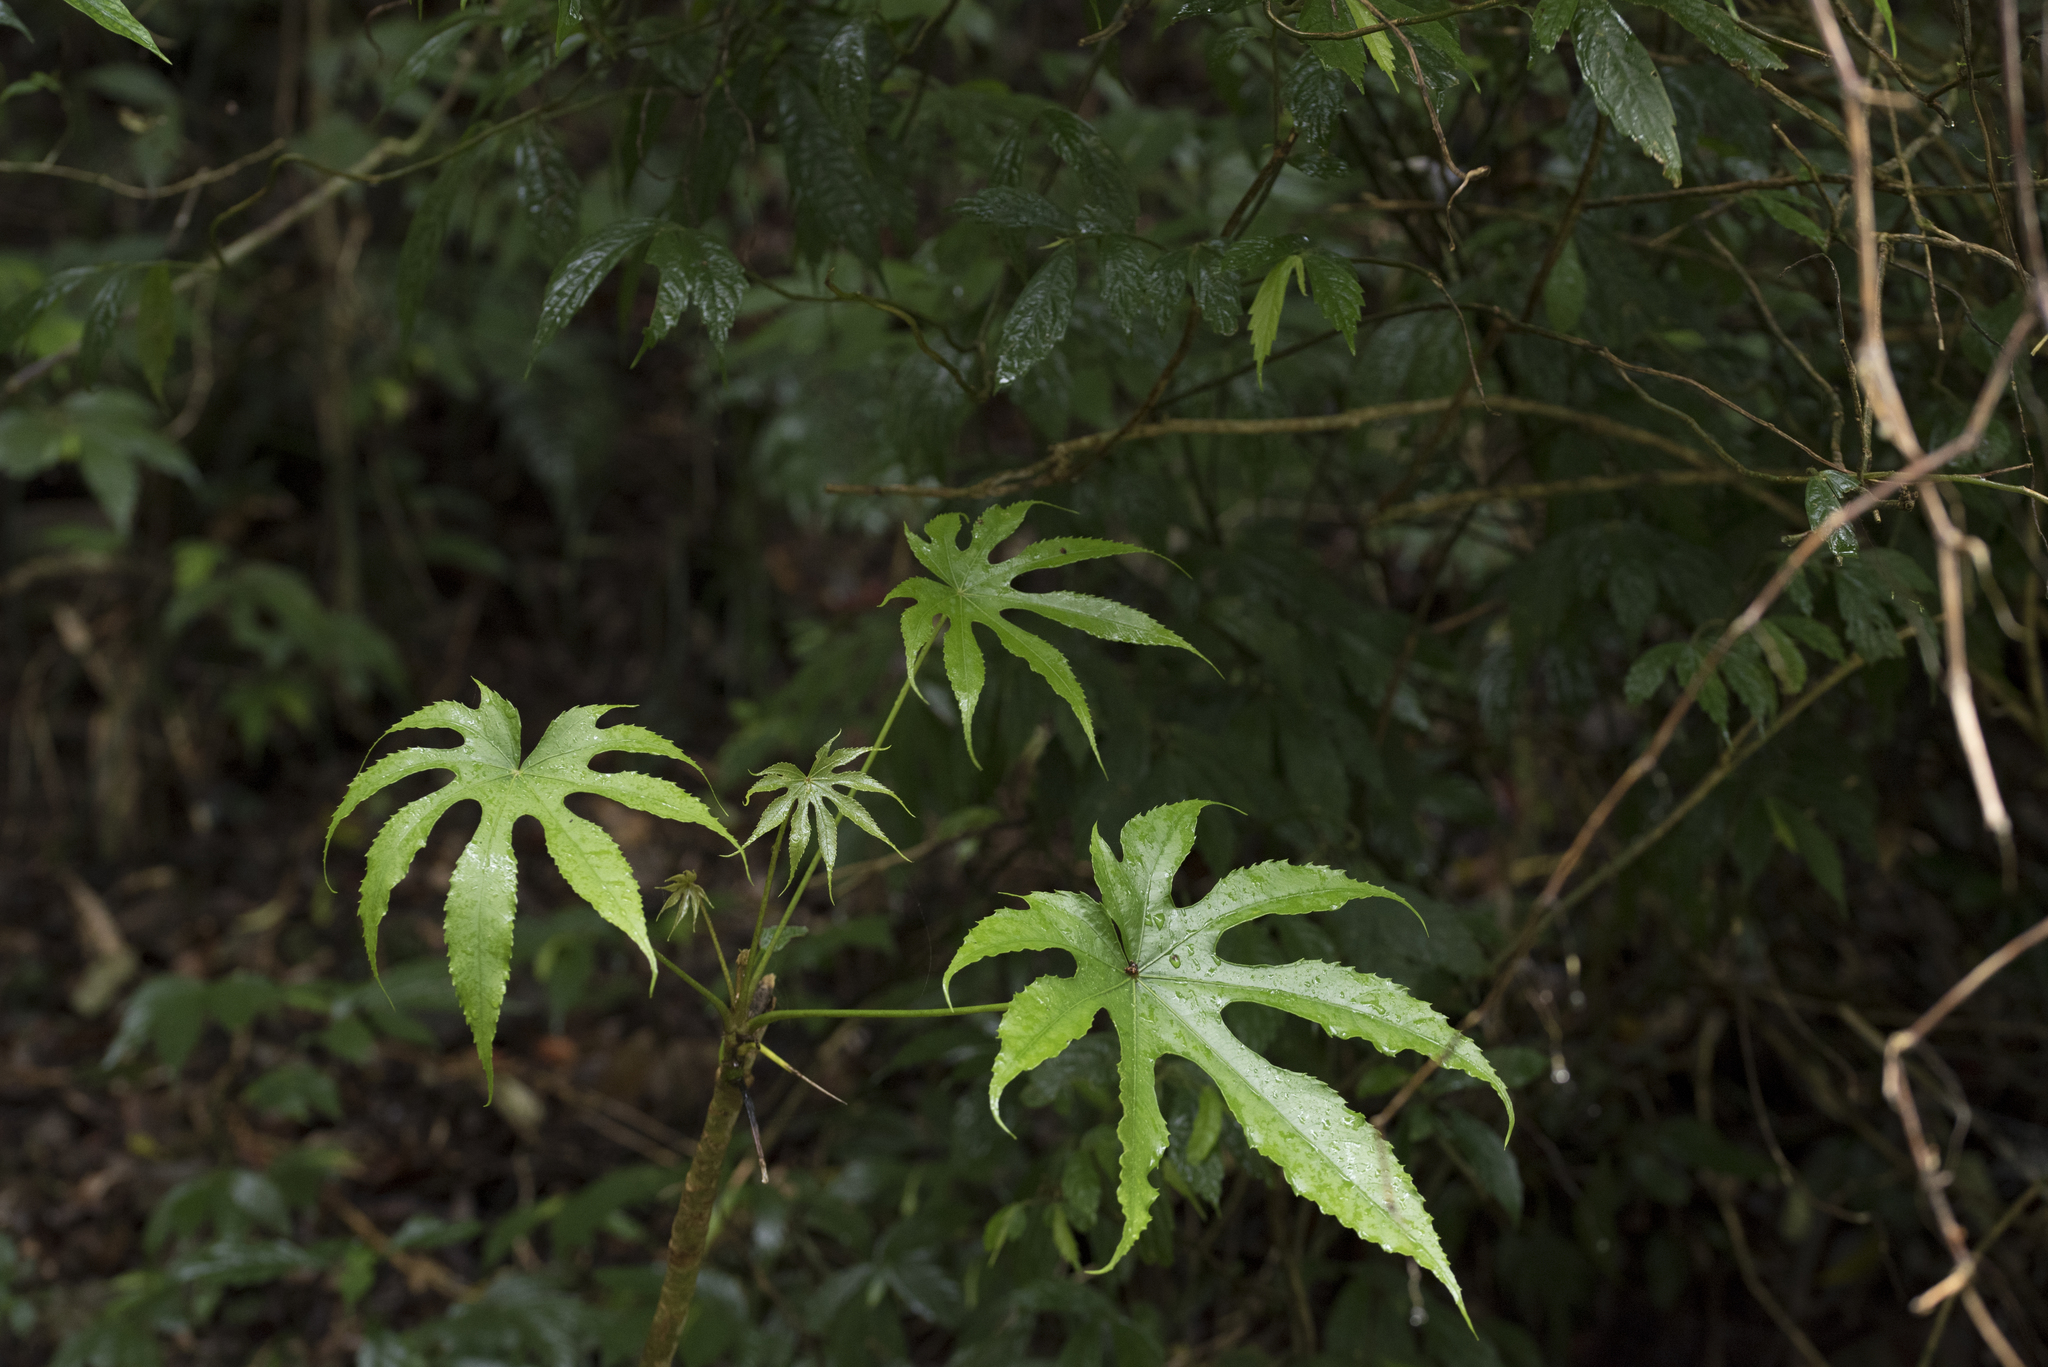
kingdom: Plantae
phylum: Tracheophyta
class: Magnoliopsida
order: Apiales
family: Araliaceae
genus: Fatsia
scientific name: Fatsia polycarpa
